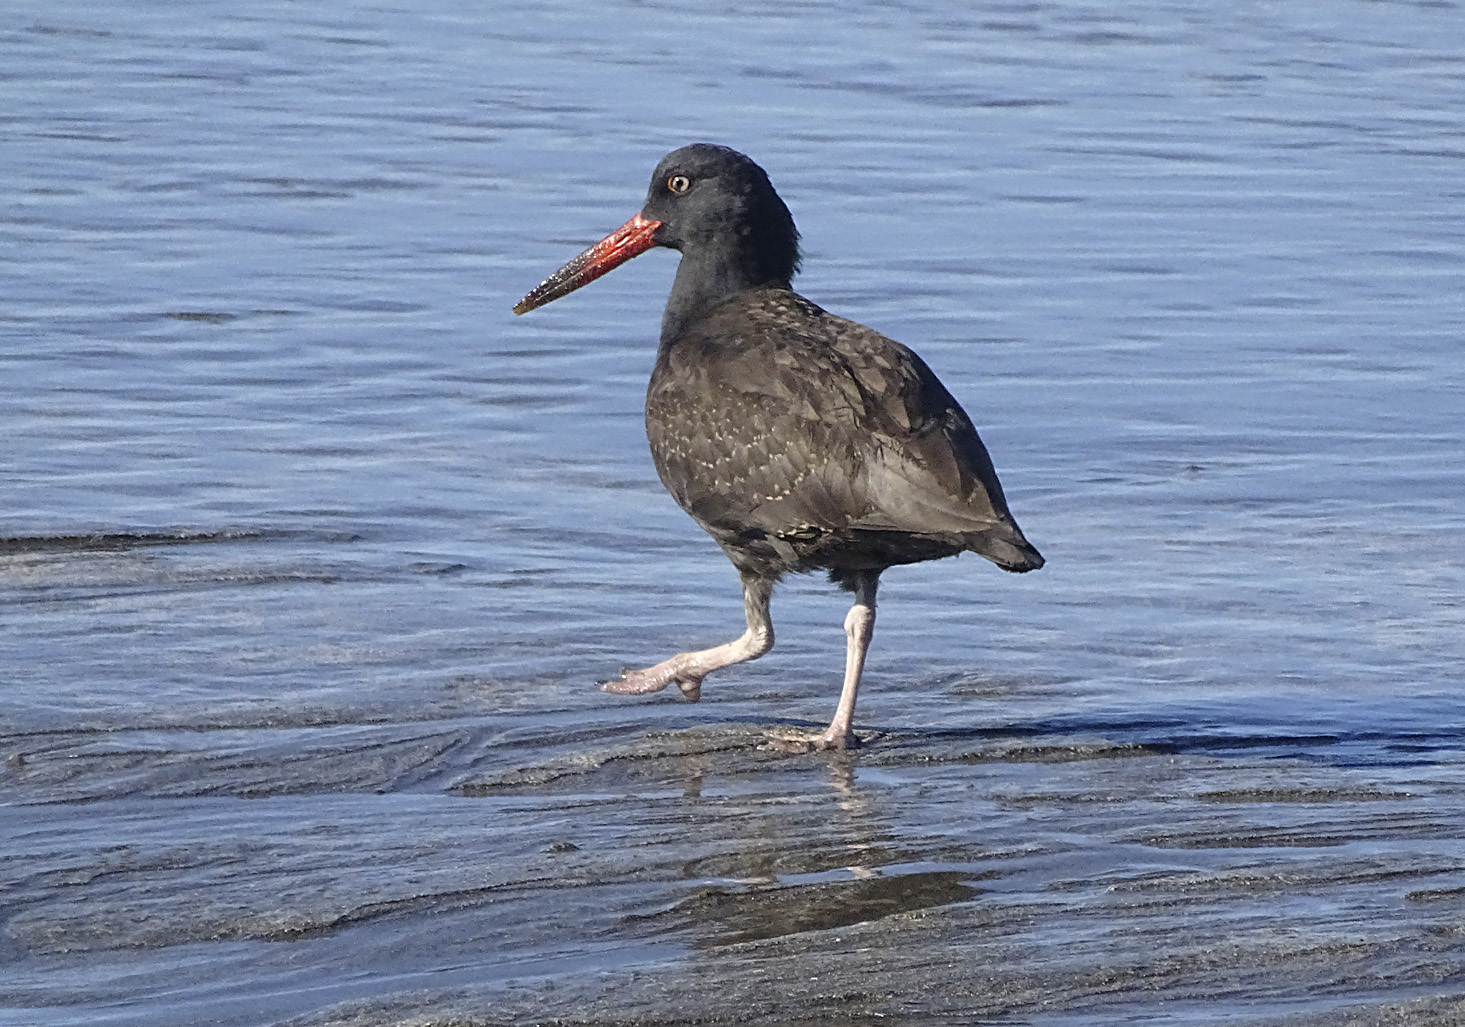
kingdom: Animalia
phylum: Chordata
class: Aves
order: Charadriiformes
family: Haematopodidae
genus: Haematopus
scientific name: Haematopus bachmani
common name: Black oystercatcher
